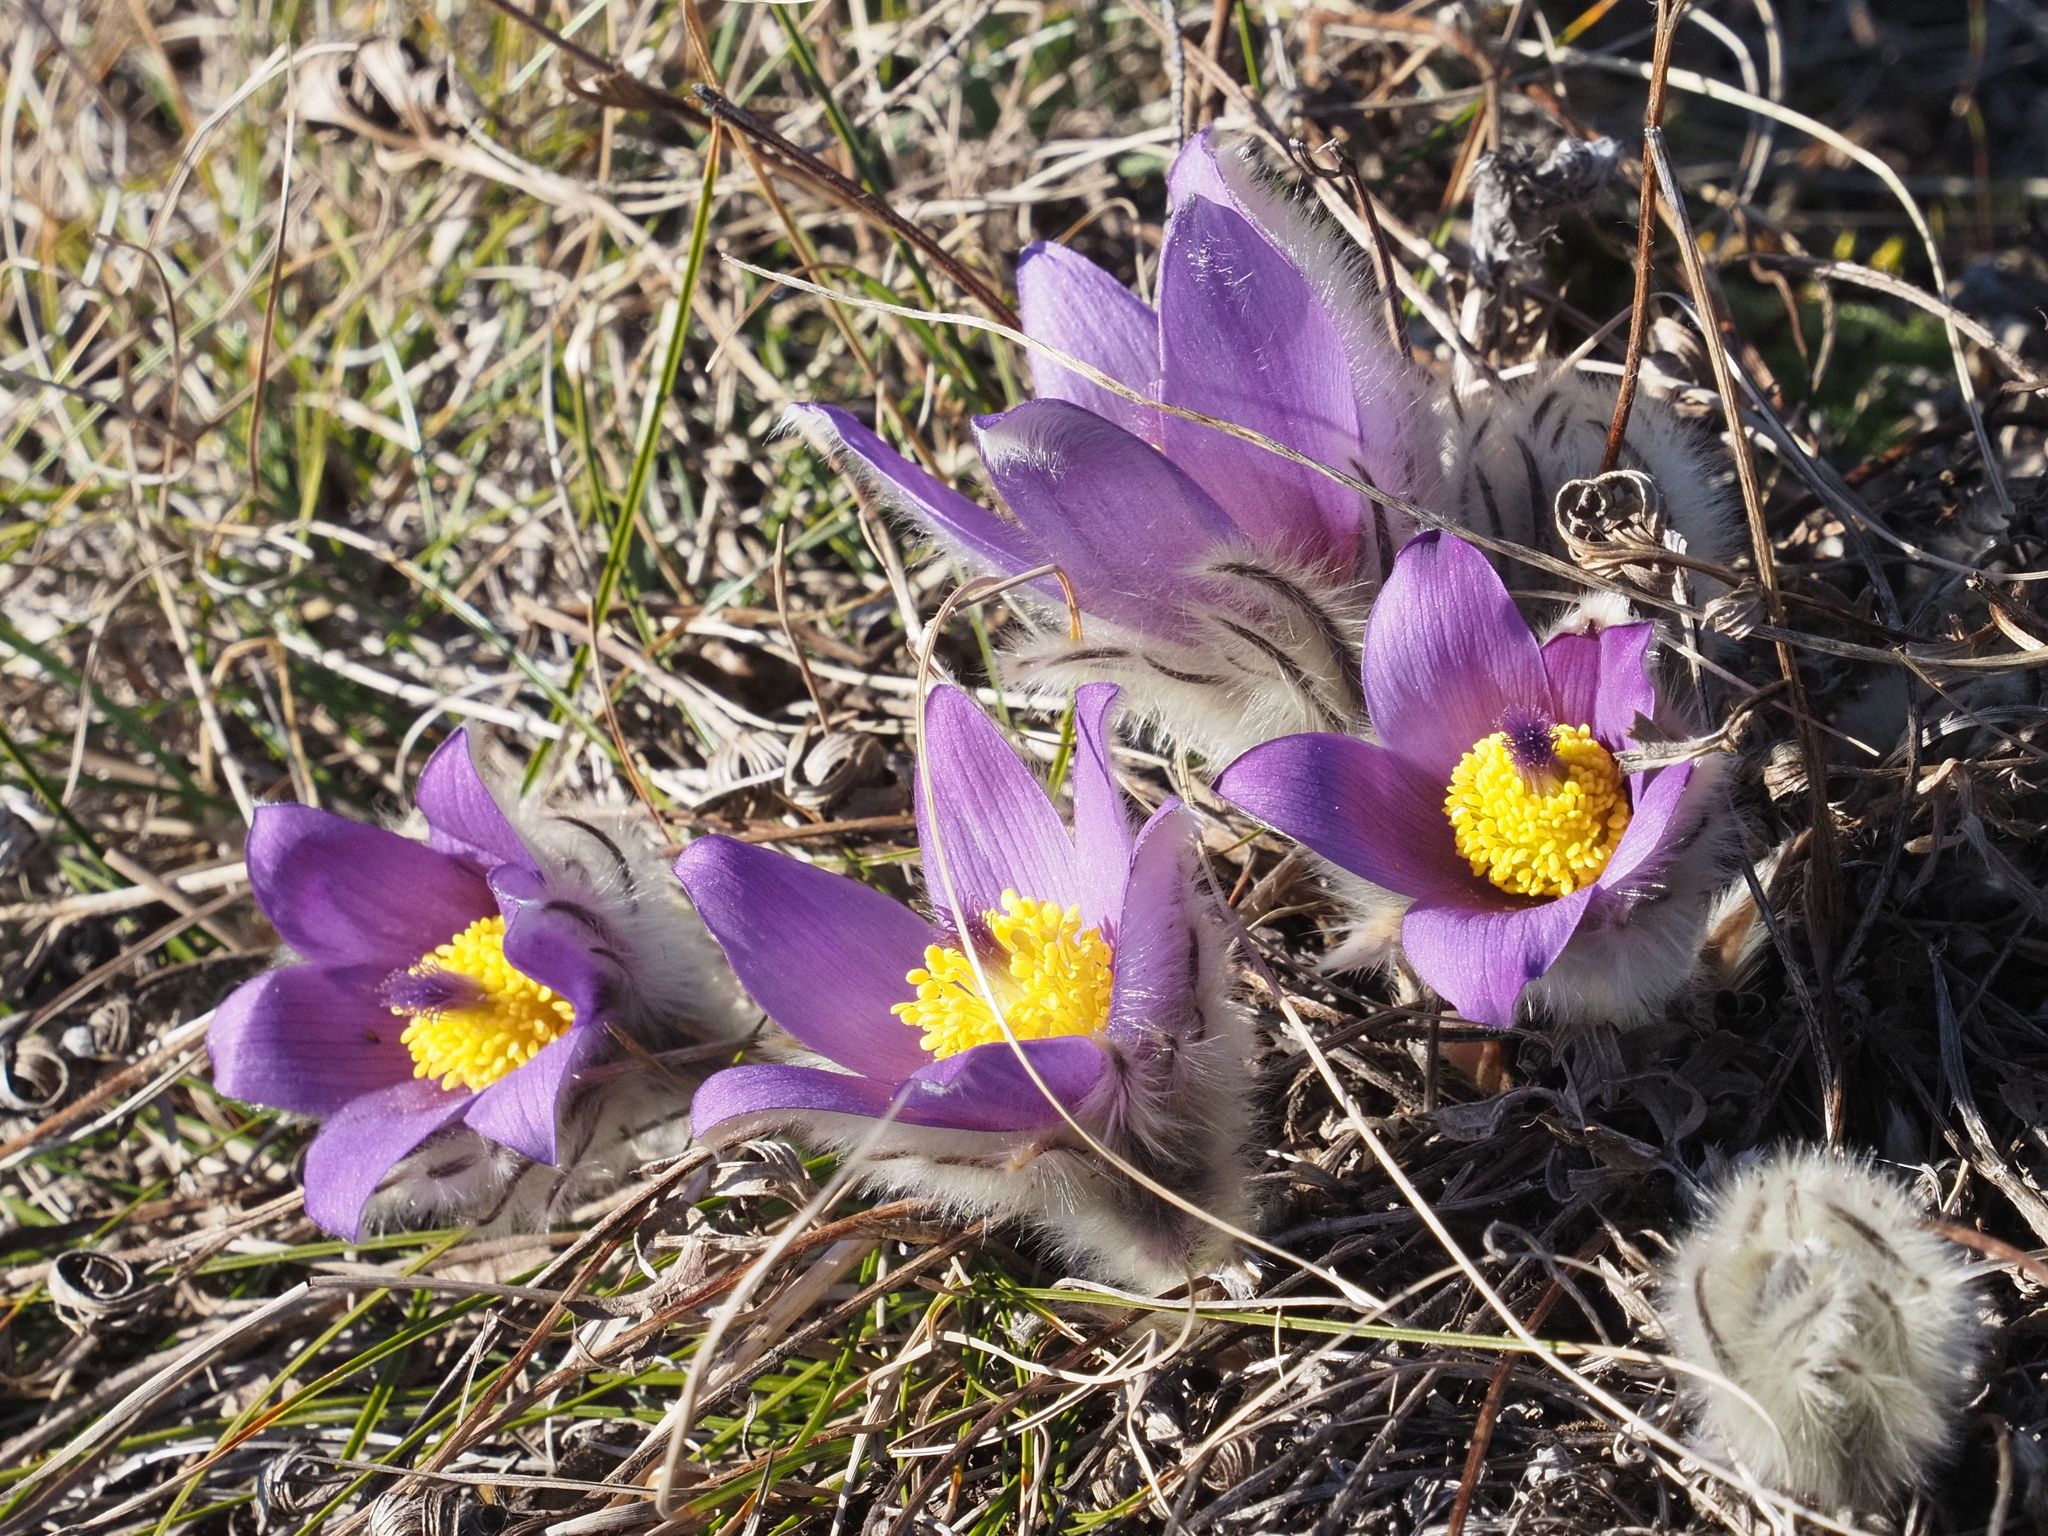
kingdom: Plantae
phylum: Tracheophyta
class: Magnoliopsida
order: Ranunculales
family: Ranunculaceae
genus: Pulsatilla
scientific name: Pulsatilla grandis
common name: Greater pasque flower
